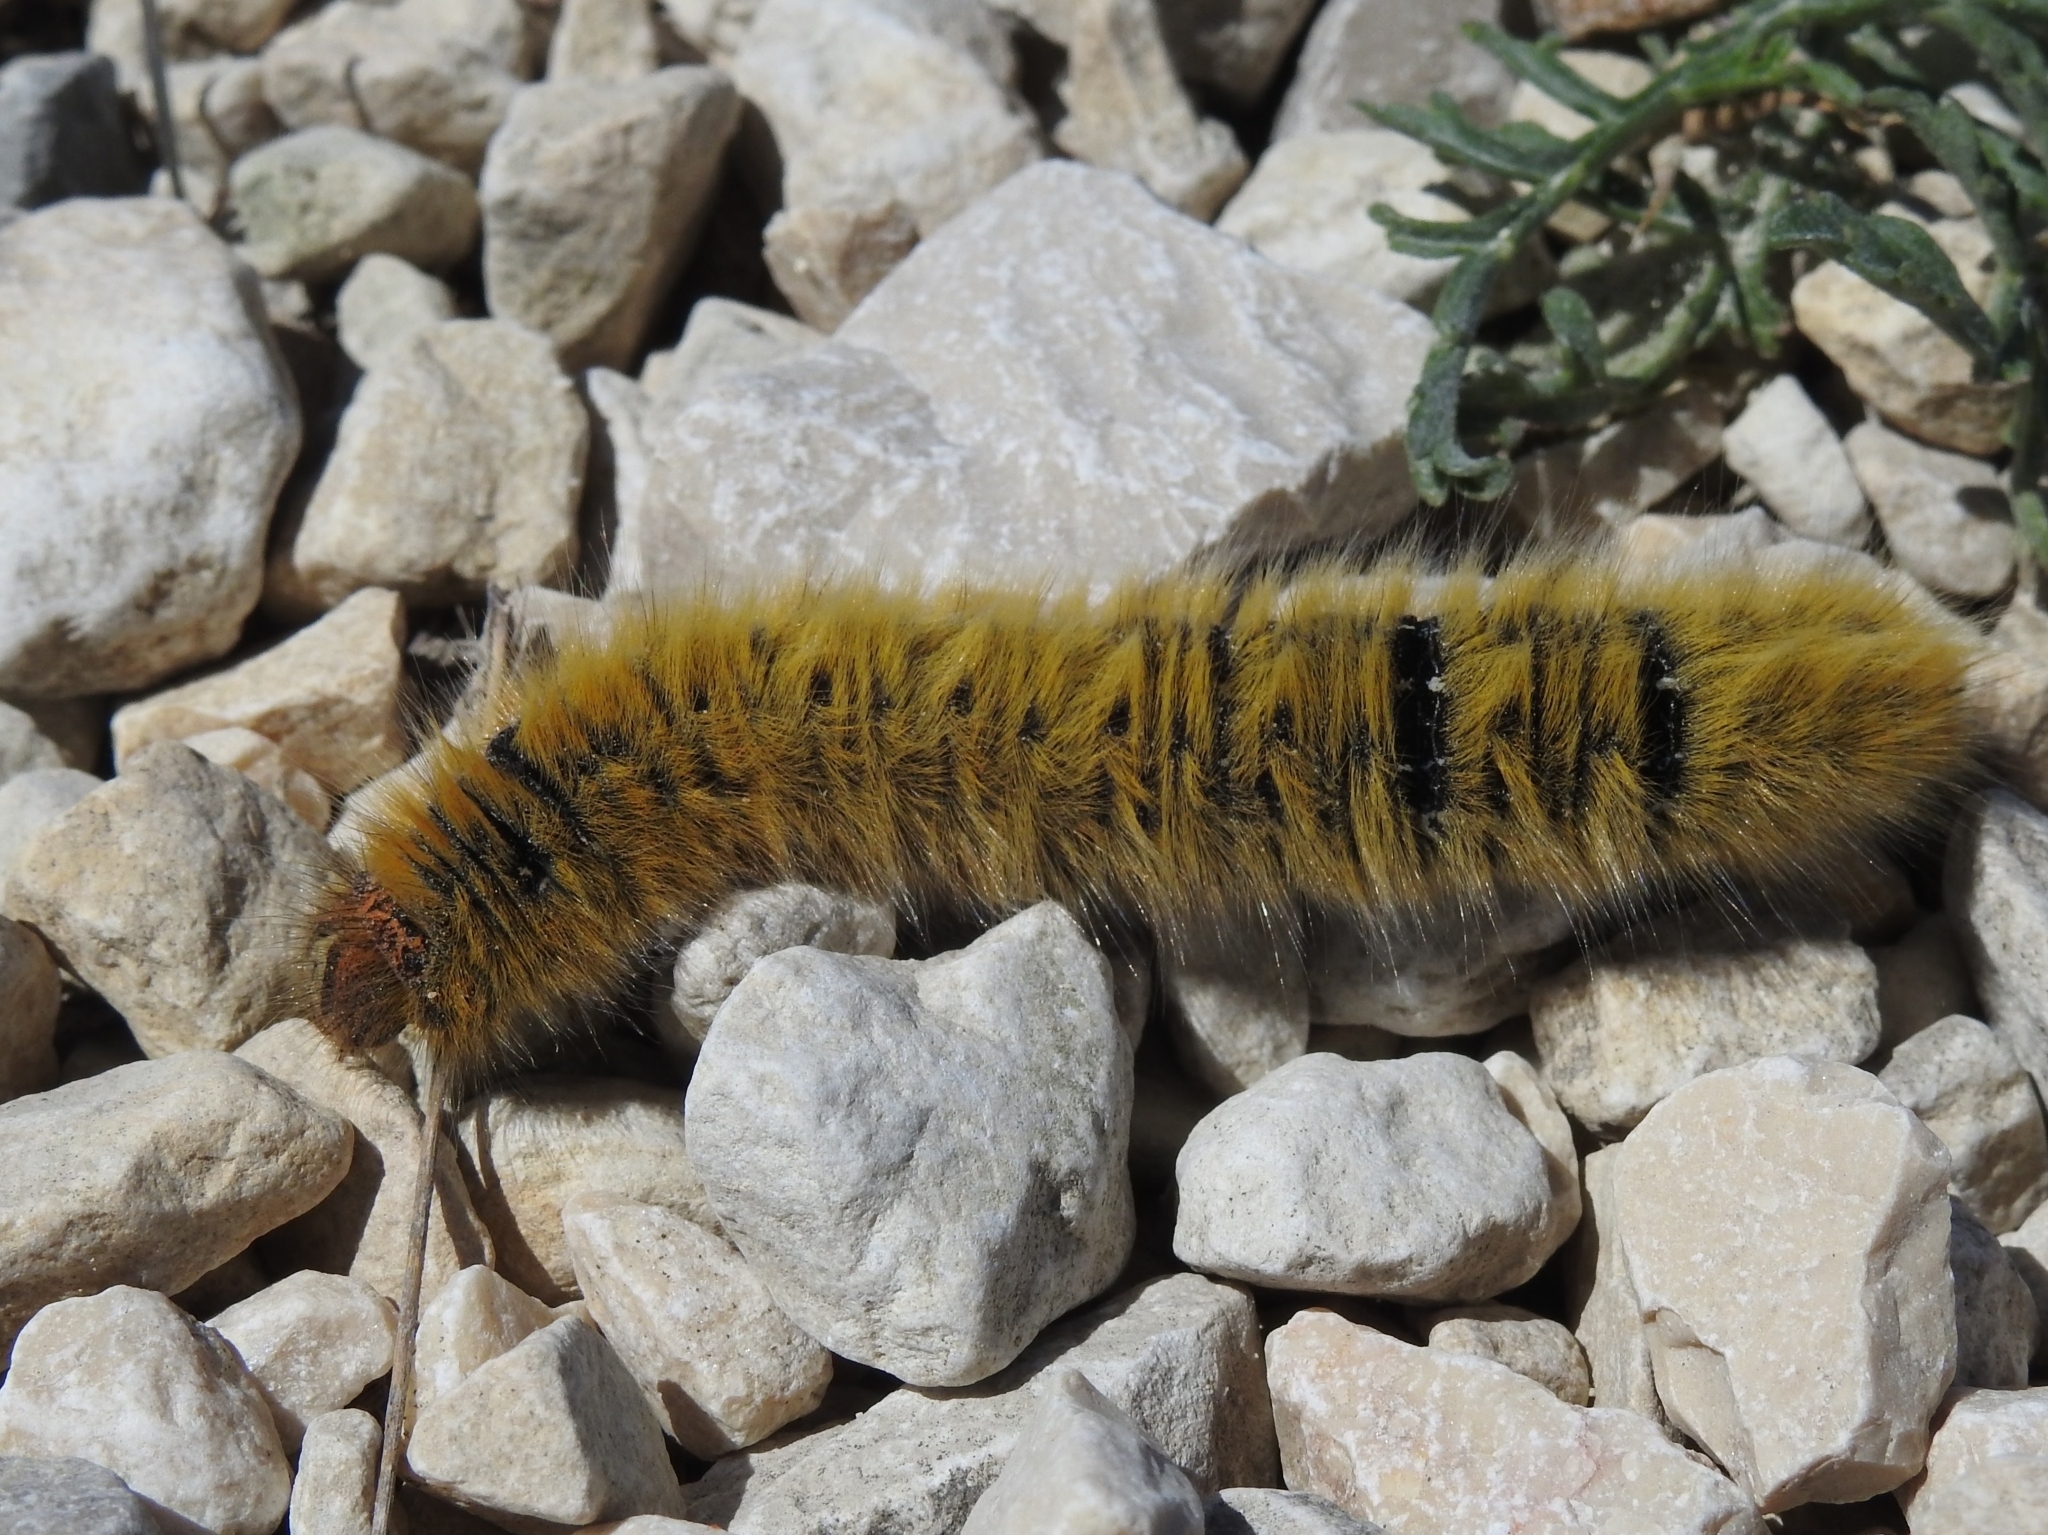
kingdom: Animalia
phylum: Arthropoda
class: Insecta
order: Lepidoptera
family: Lasiocampidae
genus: Lasiocampa
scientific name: Lasiocampa trifolii
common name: Grass eggar
